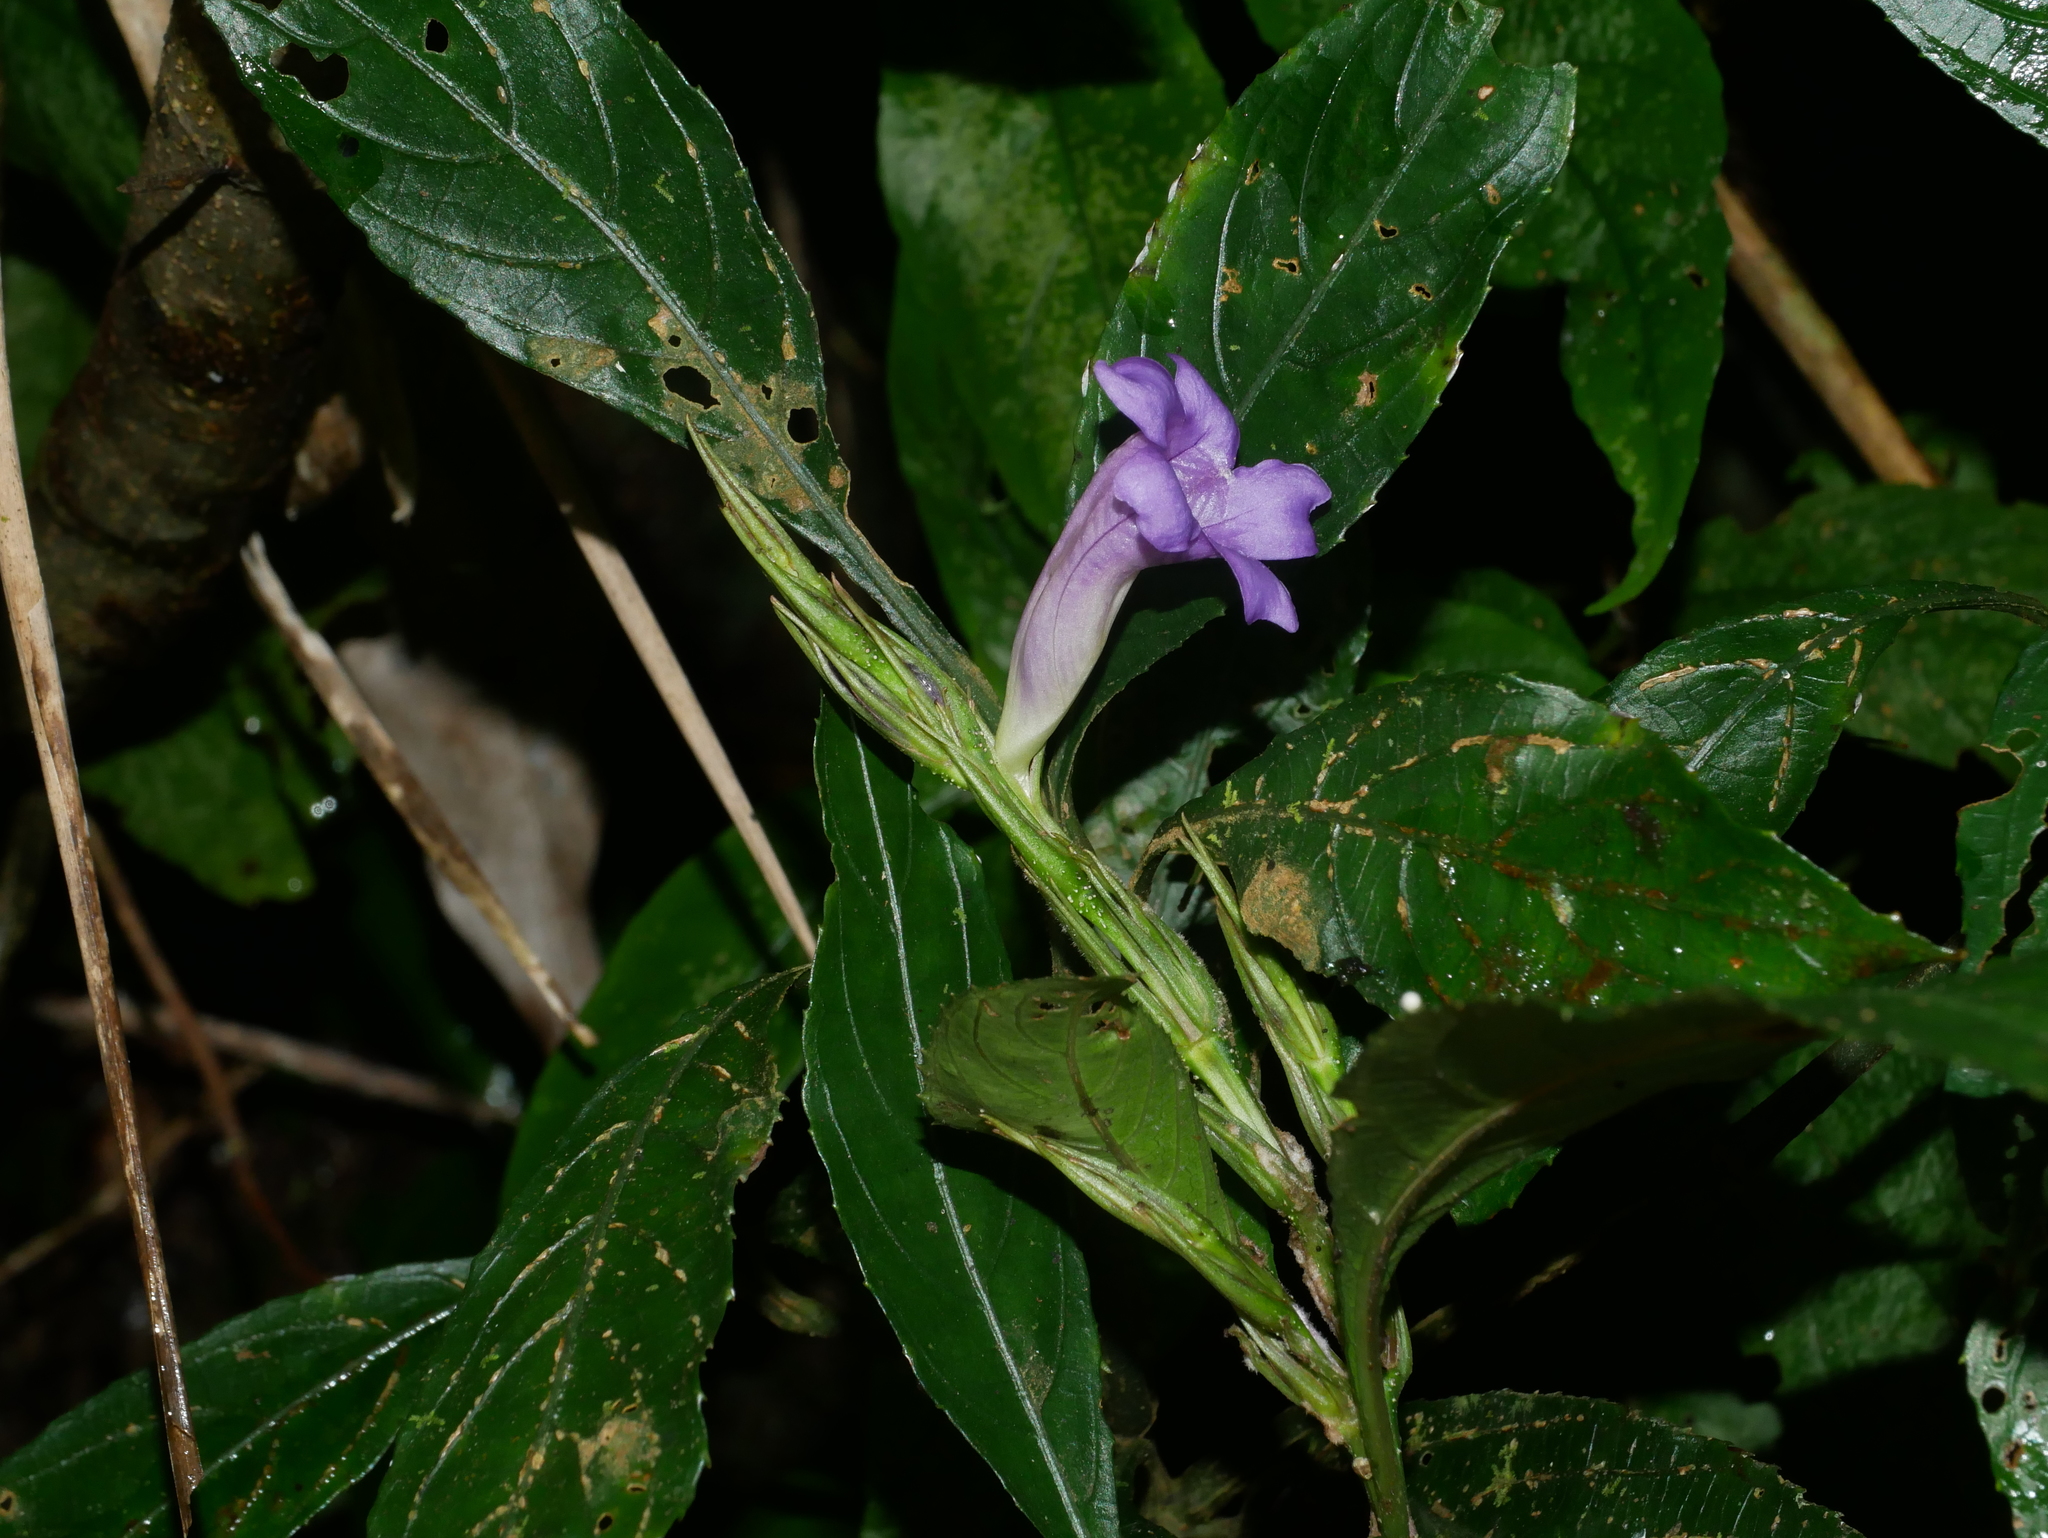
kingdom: Plantae
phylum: Tracheophyta
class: Magnoliopsida
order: Lamiales
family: Acanthaceae
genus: Strobilanthes
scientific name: Strobilanthes longespicata
